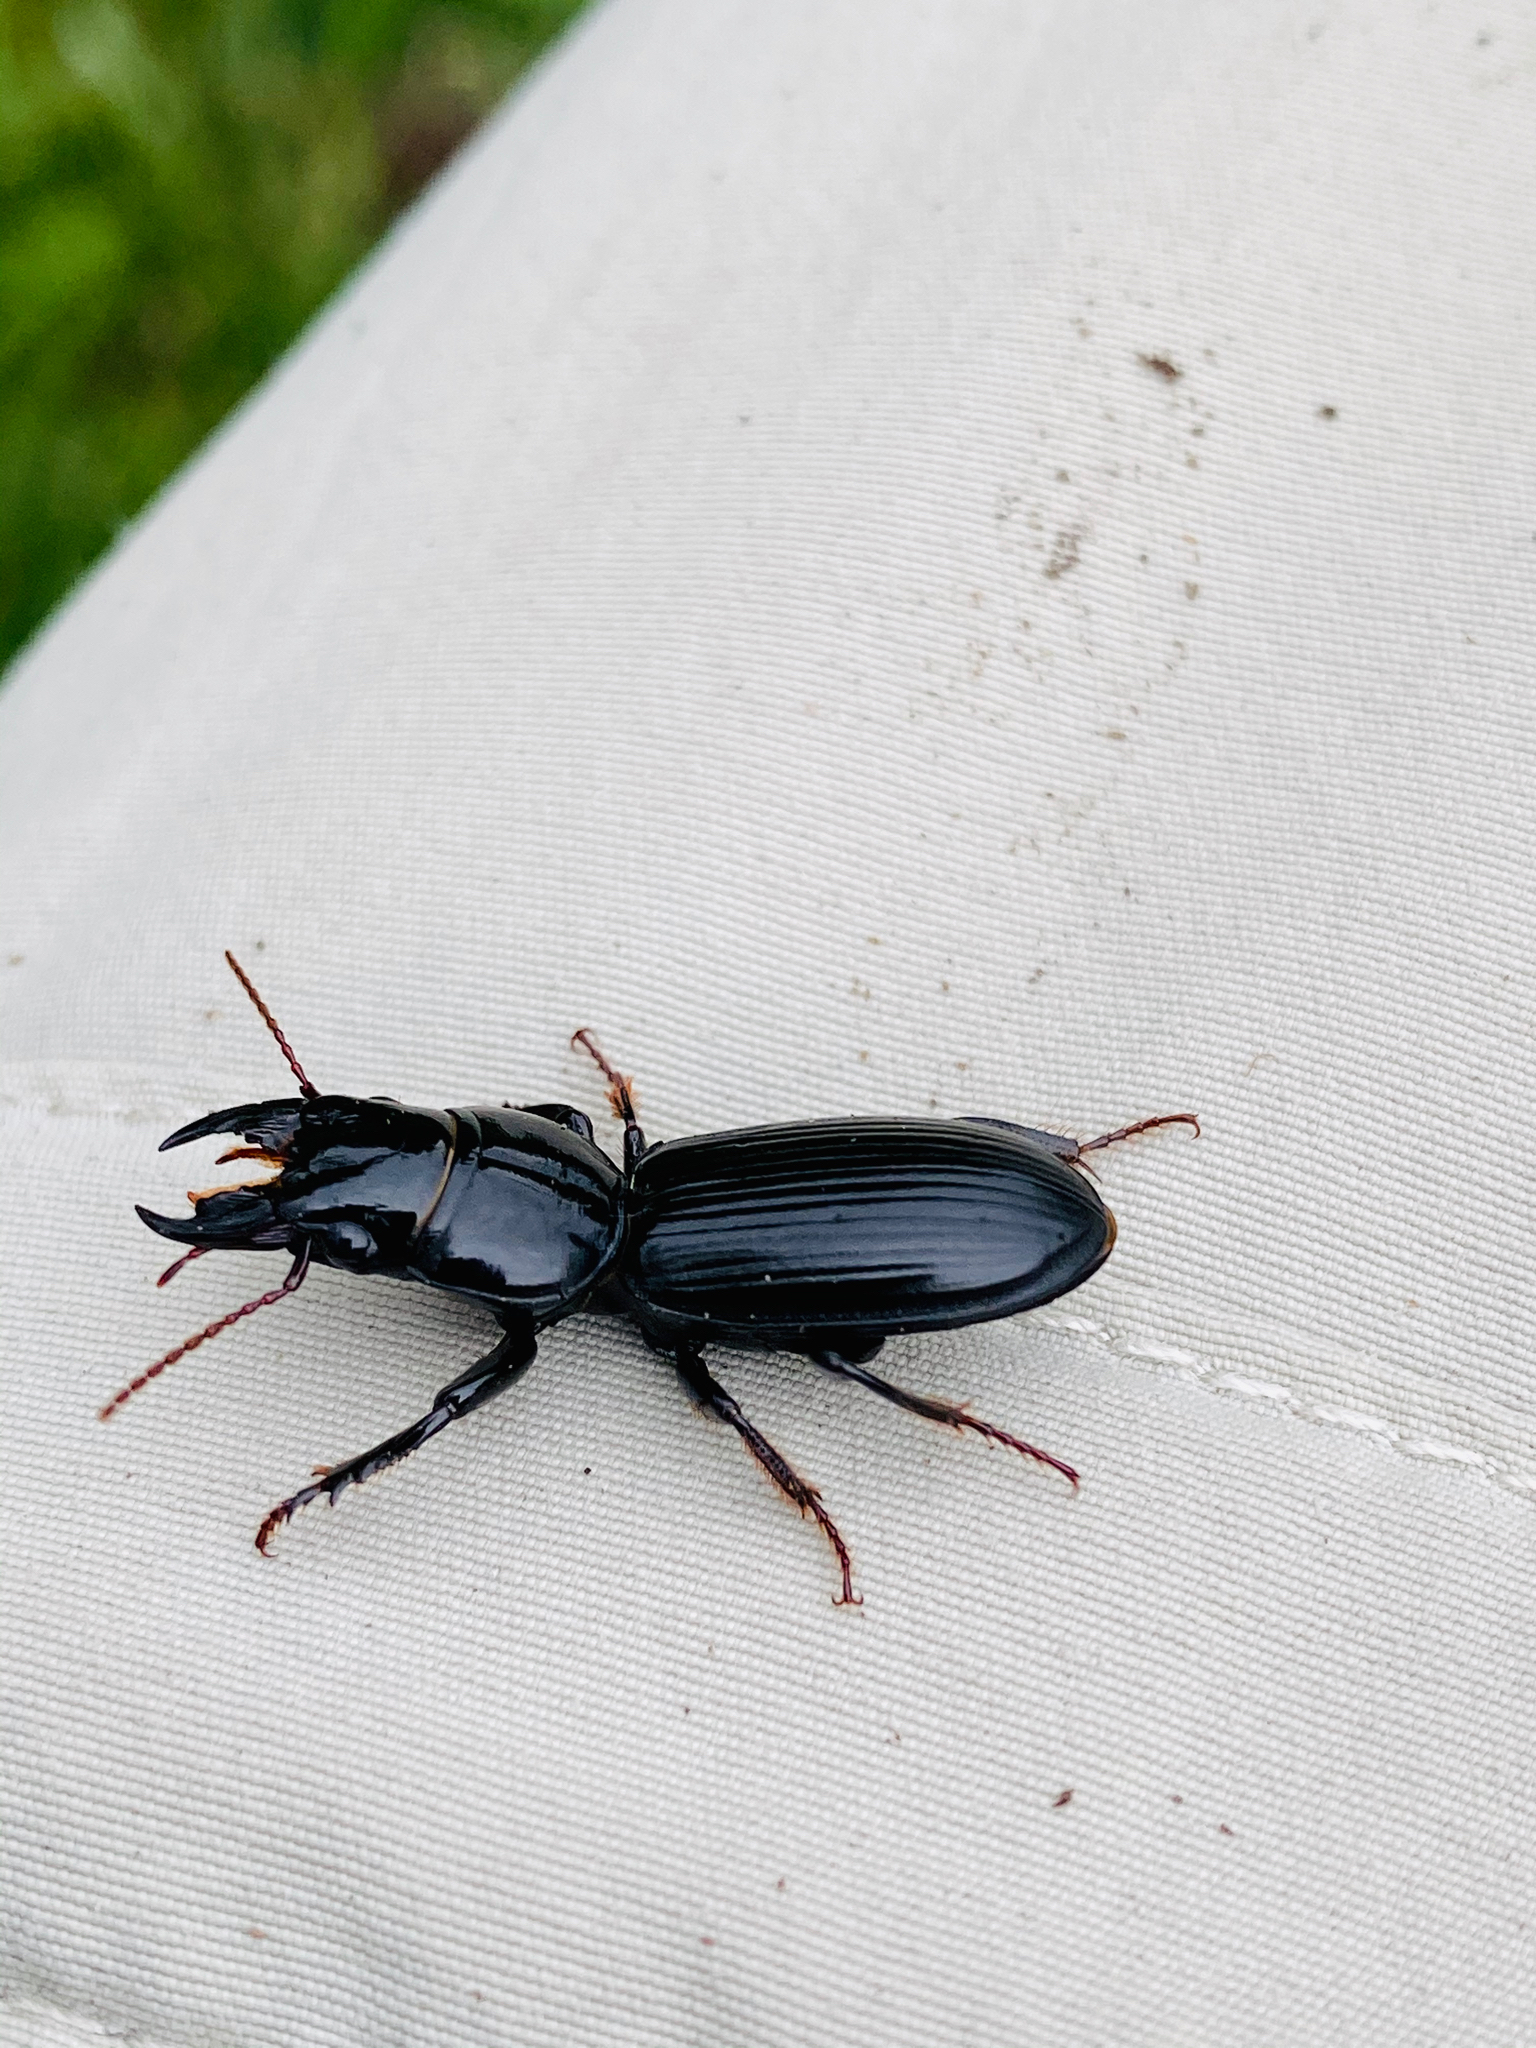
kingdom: Animalia
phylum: Arthropoda
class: Insecta
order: Coleoptera
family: Carabidae
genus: Scarites
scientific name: Scarites subterraneus
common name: Big-headed ground beetle
